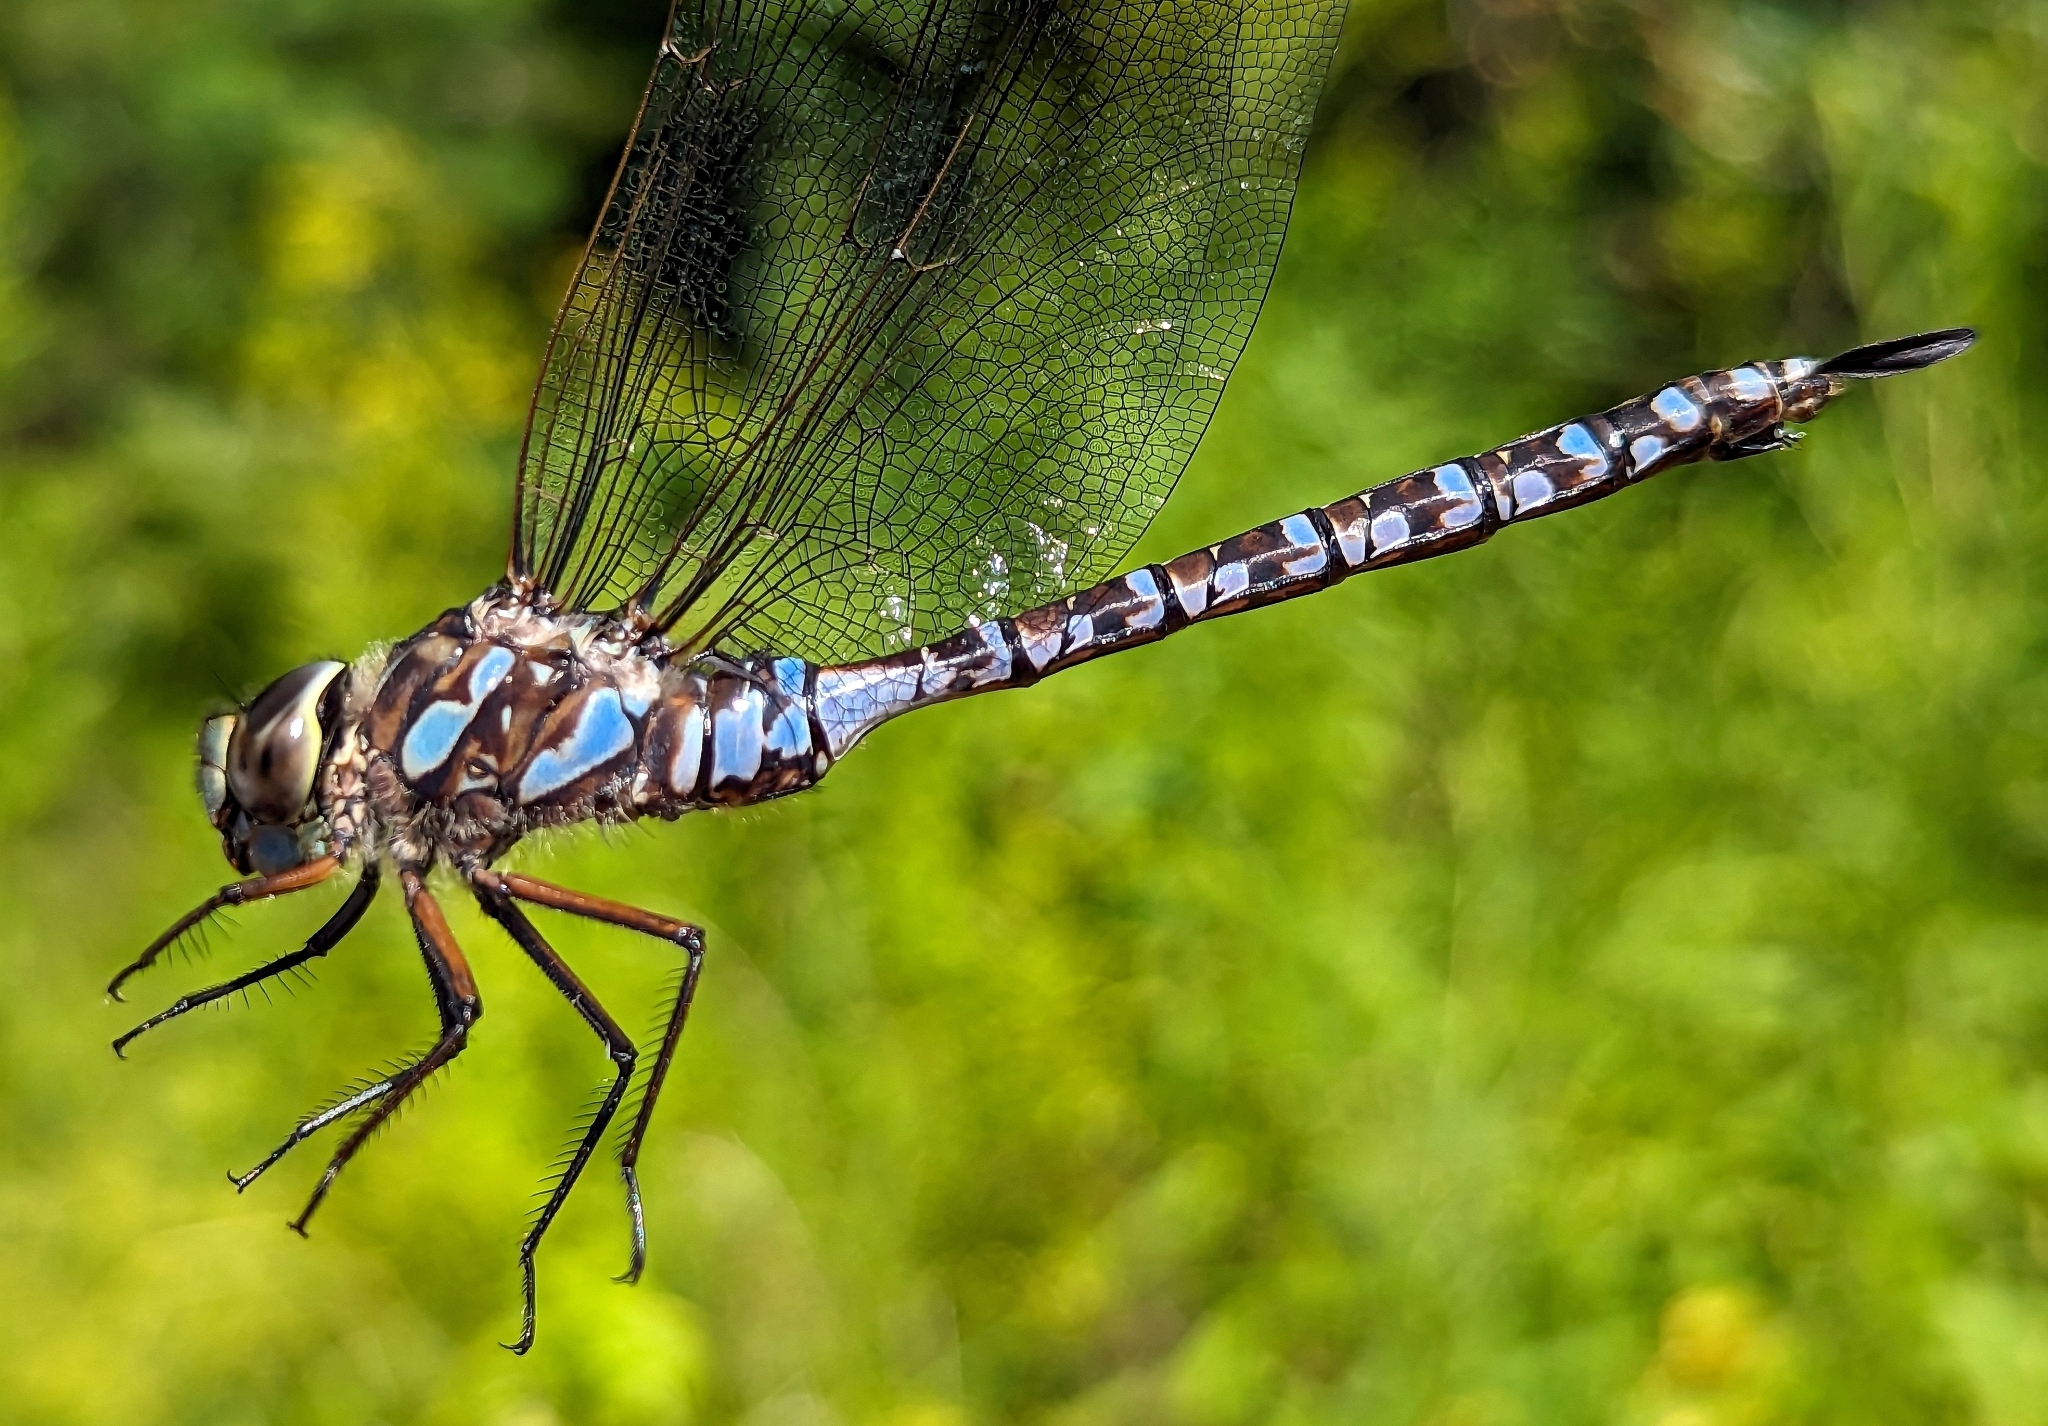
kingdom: Animalia
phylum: Arthropoda
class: Insecta
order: Odonata
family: Aeshnidae
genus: Aeshna
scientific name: Aeshna eremita
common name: Lake darner
